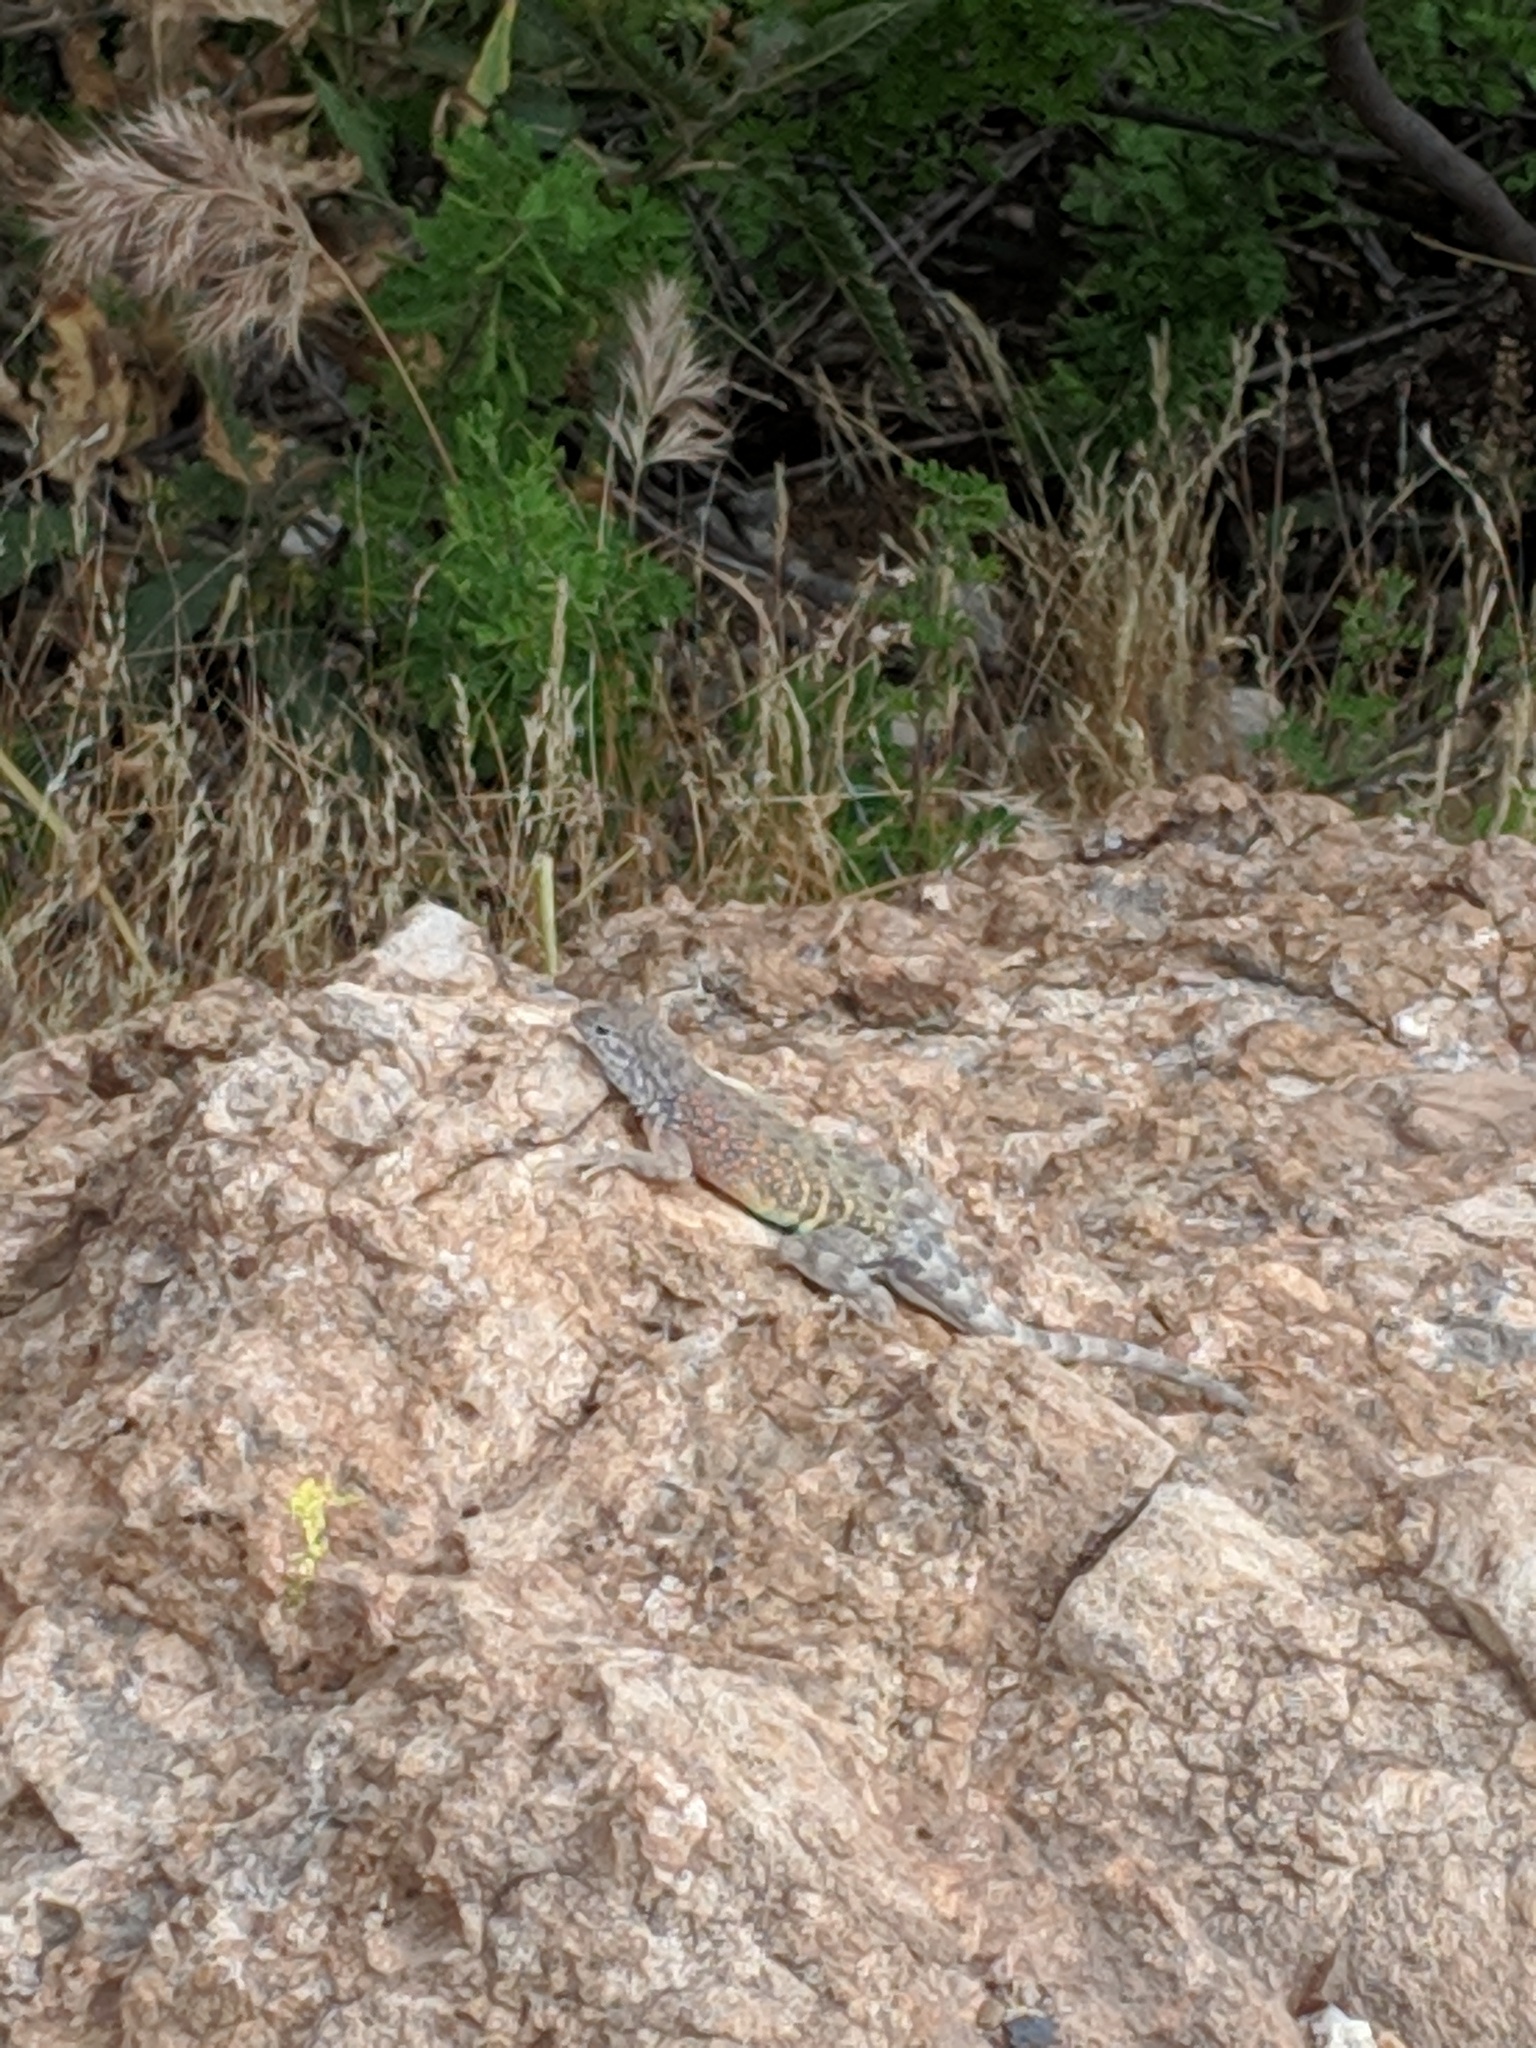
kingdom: Animalia
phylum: Chordata
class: Squamata
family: Phrynosomatidae
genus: Cophosaurus
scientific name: Cophosaurus texanus
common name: Greater earless lizard
